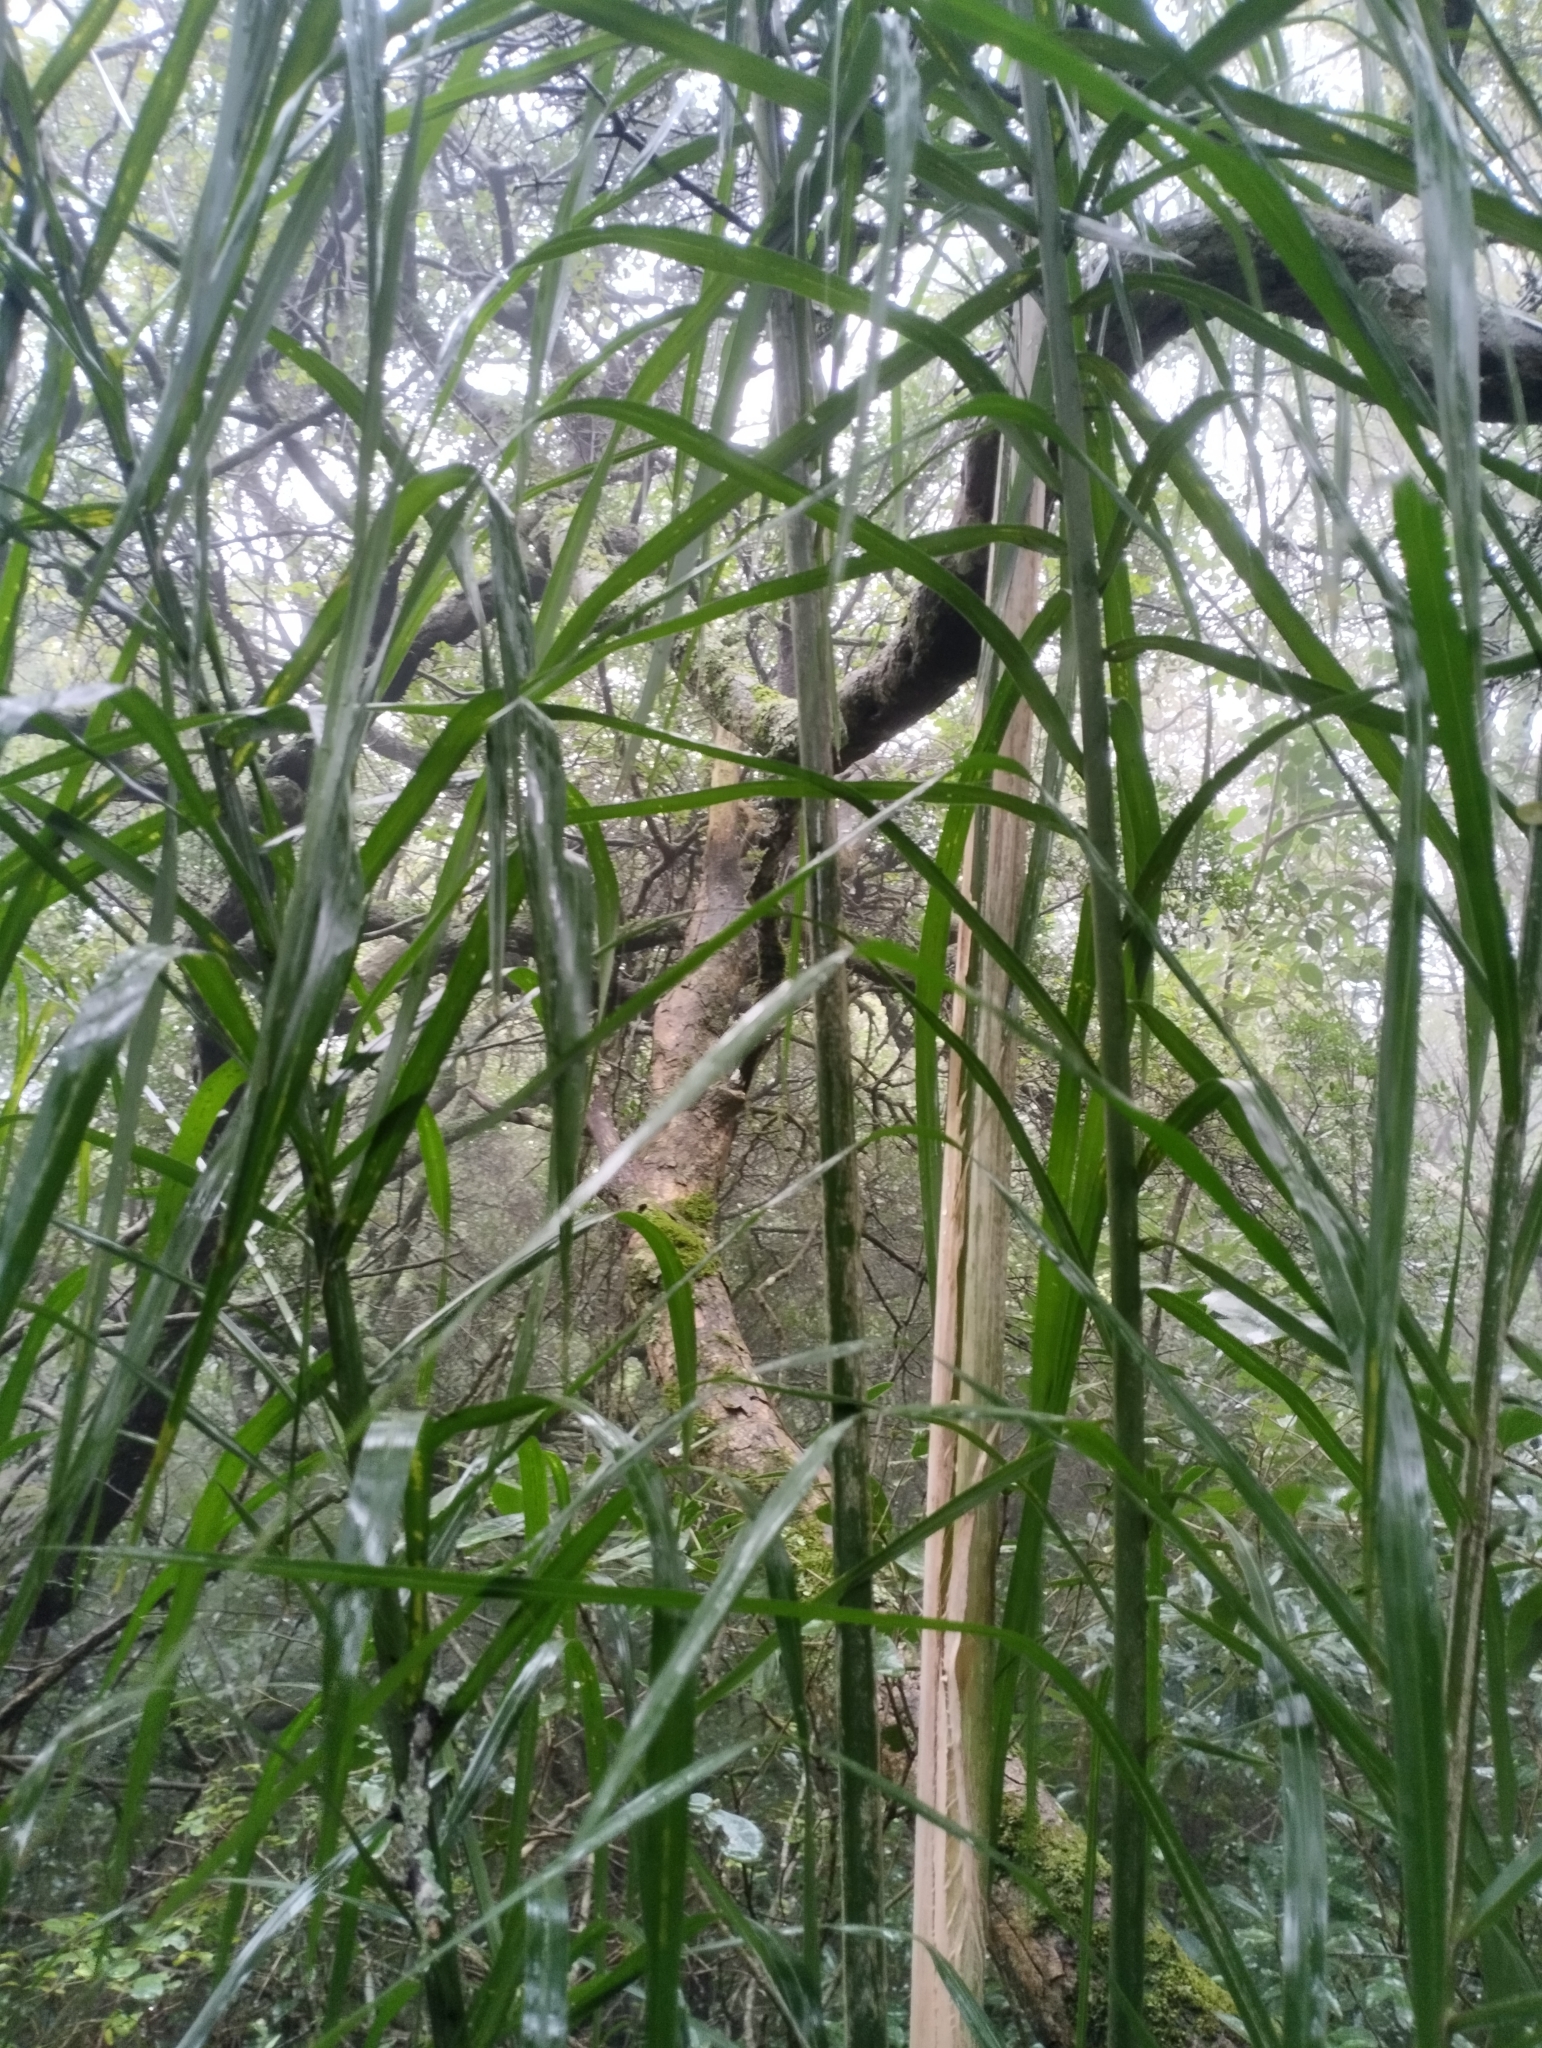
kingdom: Plantae
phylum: Tracheophyta
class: Liliopsida
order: Arecales
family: Arecaceae
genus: Syagrus
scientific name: Syagrus romanzoffiana
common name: Queen palm
